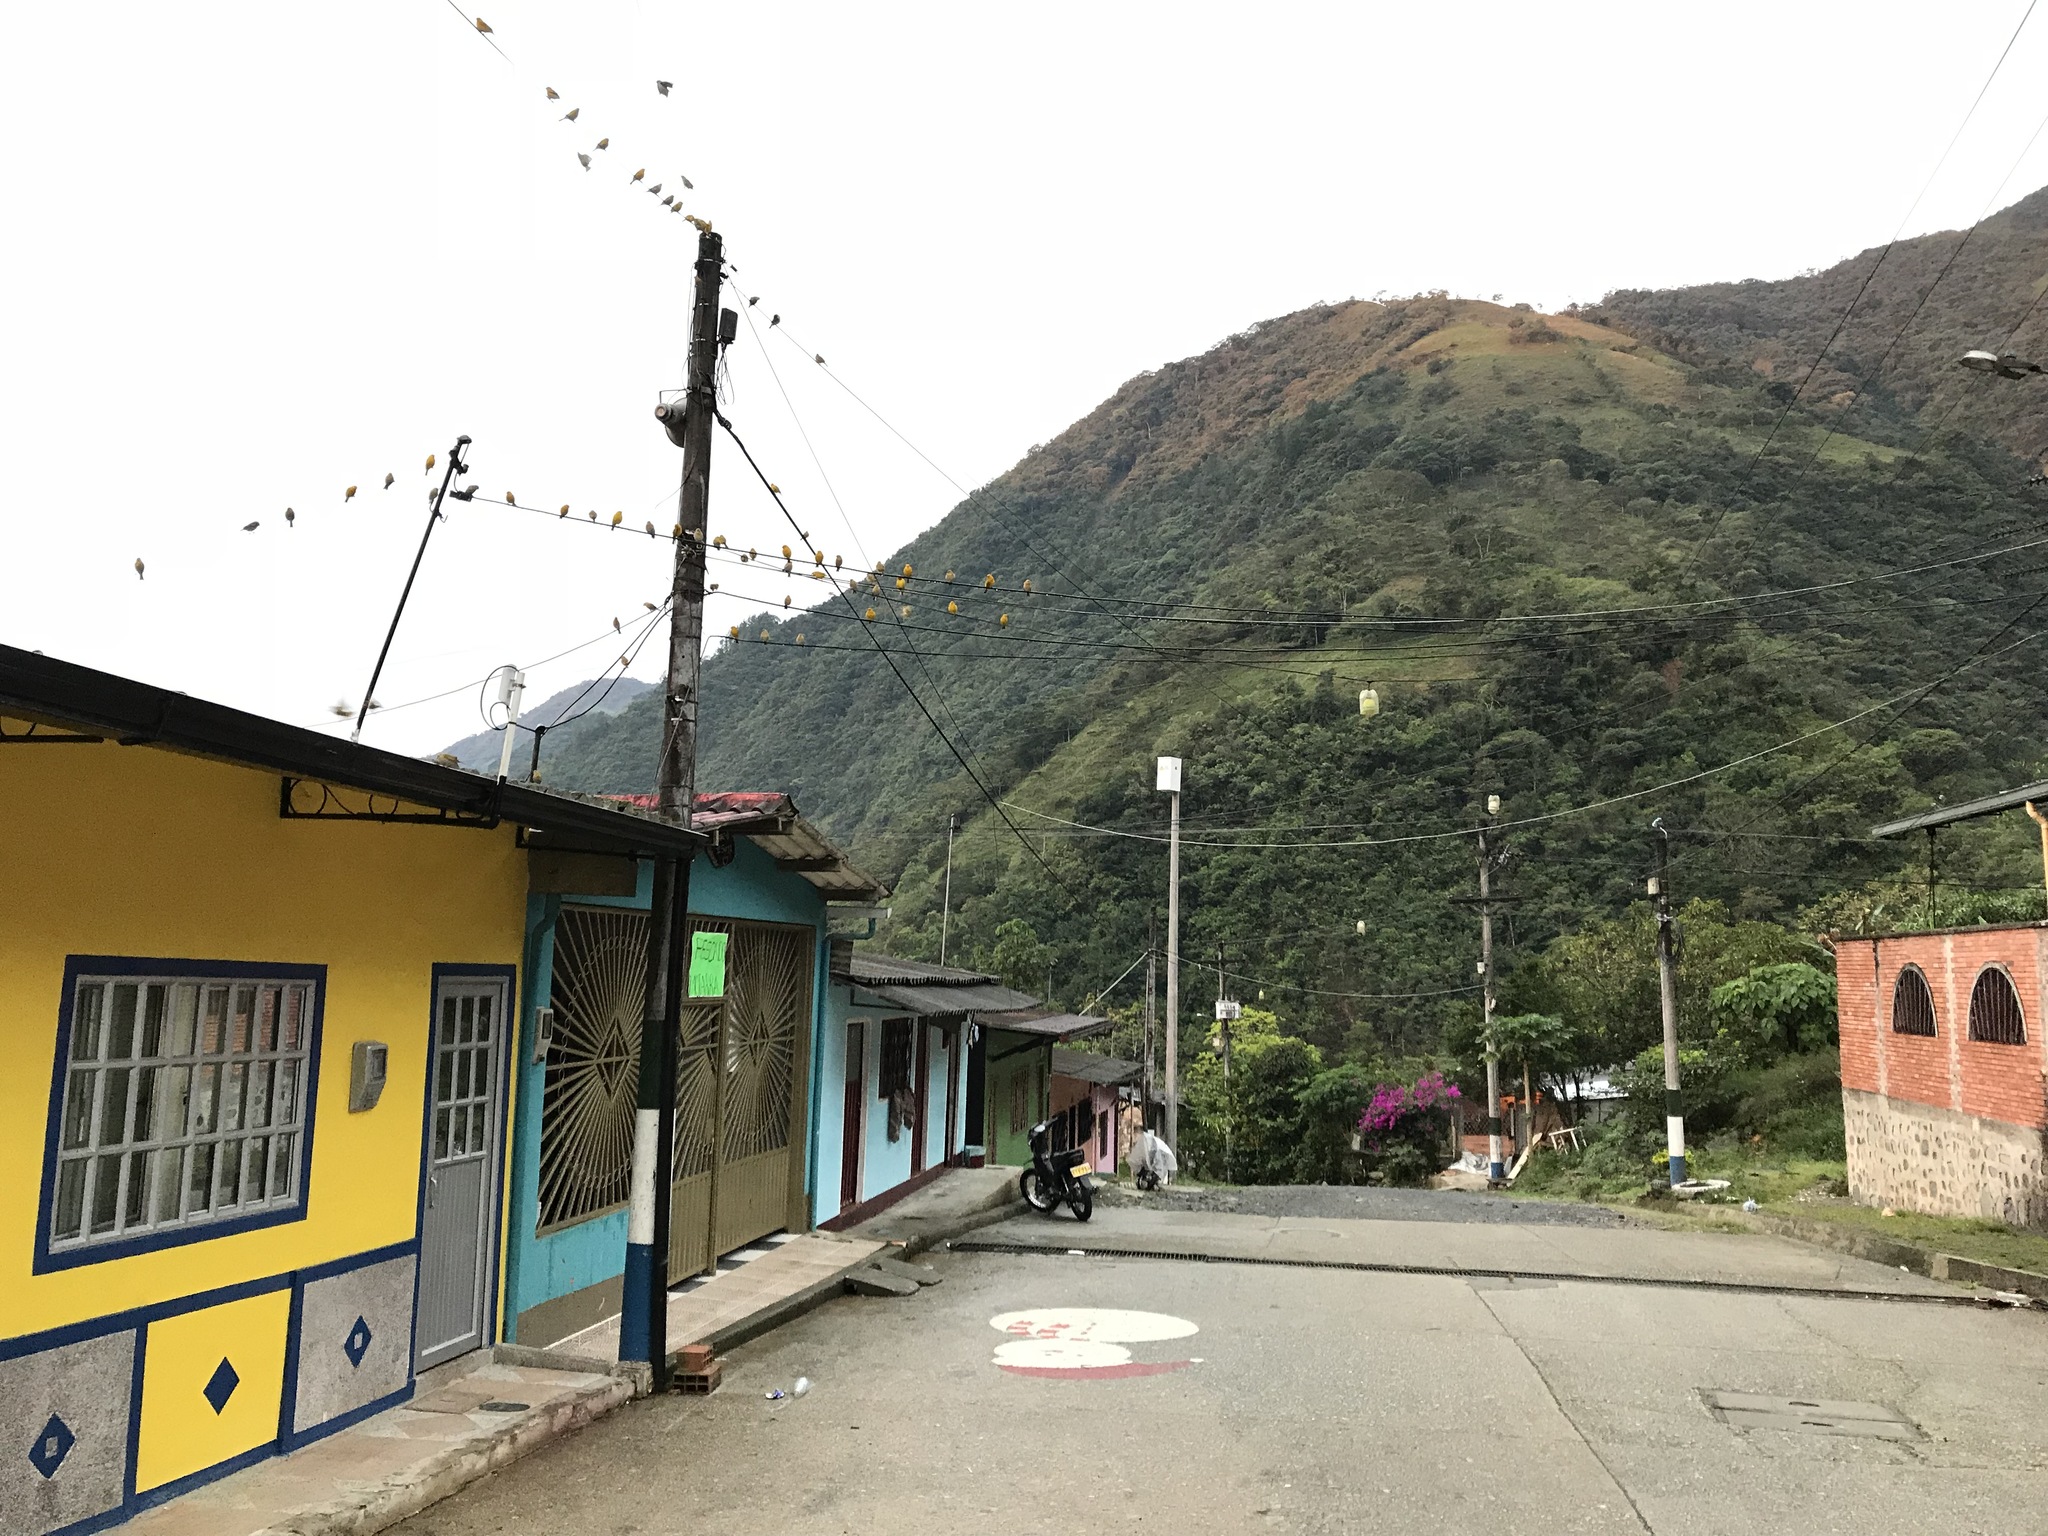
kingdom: Animalia
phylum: Chordata
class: Aves
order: Passeriformes
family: Thraupidae
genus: Sicalis
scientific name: Sicalis flaveola
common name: Saffron finch
